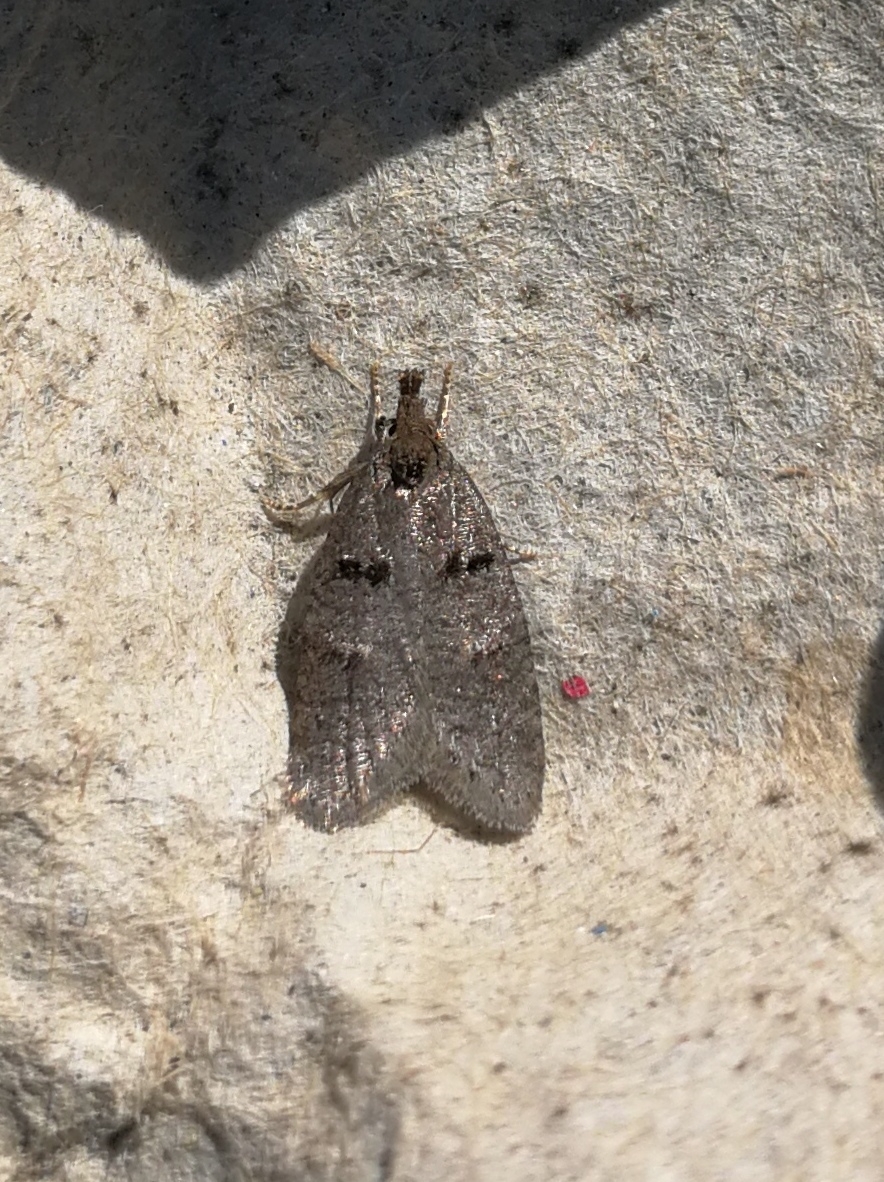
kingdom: Animalia
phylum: Arthropoda
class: Insecta
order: Lepidoptera
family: Oecophoridae
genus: Luquetia
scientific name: Luquetia lobella
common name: Sloe flat-body
